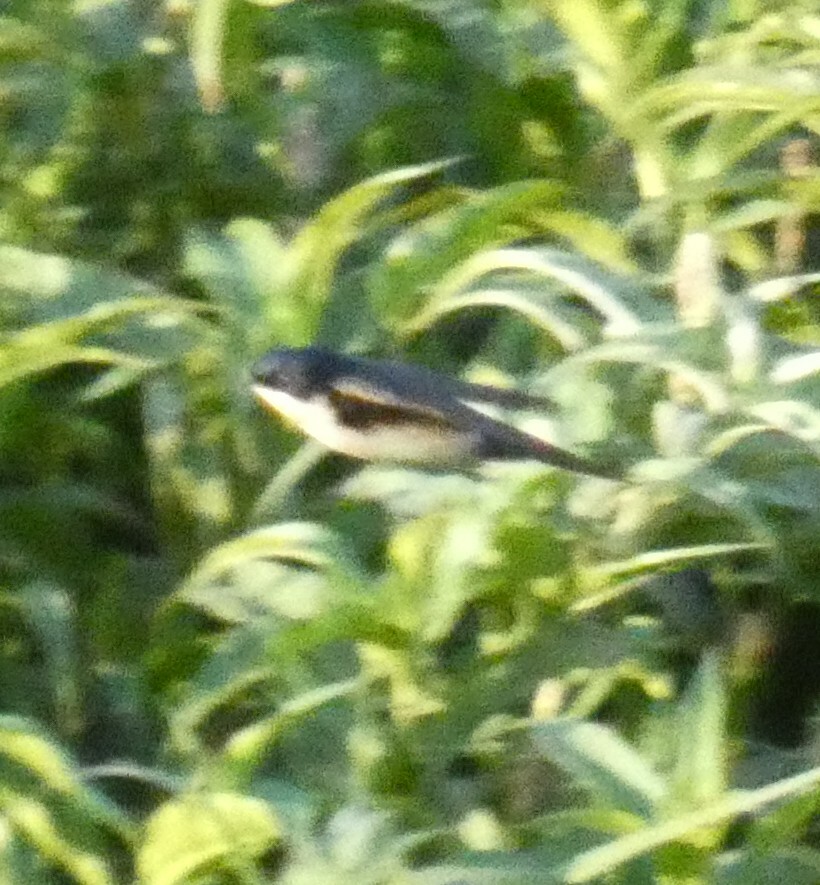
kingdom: Animalia
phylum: Chordata
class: Aves
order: Passeriformes
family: Hirundinidae
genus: Notiochelidon
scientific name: Notiochelidon cyanoleuca
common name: Blue-and-white swallow
